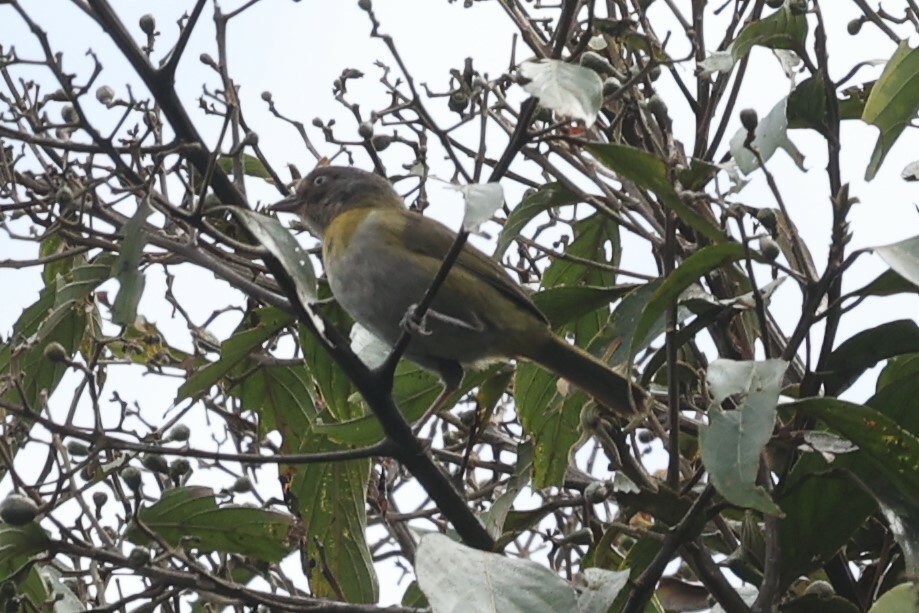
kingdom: Animalia
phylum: Chordata
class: Aves
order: Passeriformes
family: Passerellidae
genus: Chlorospingus
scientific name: Chlorospingus flavopectus
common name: Common chlorospingus
